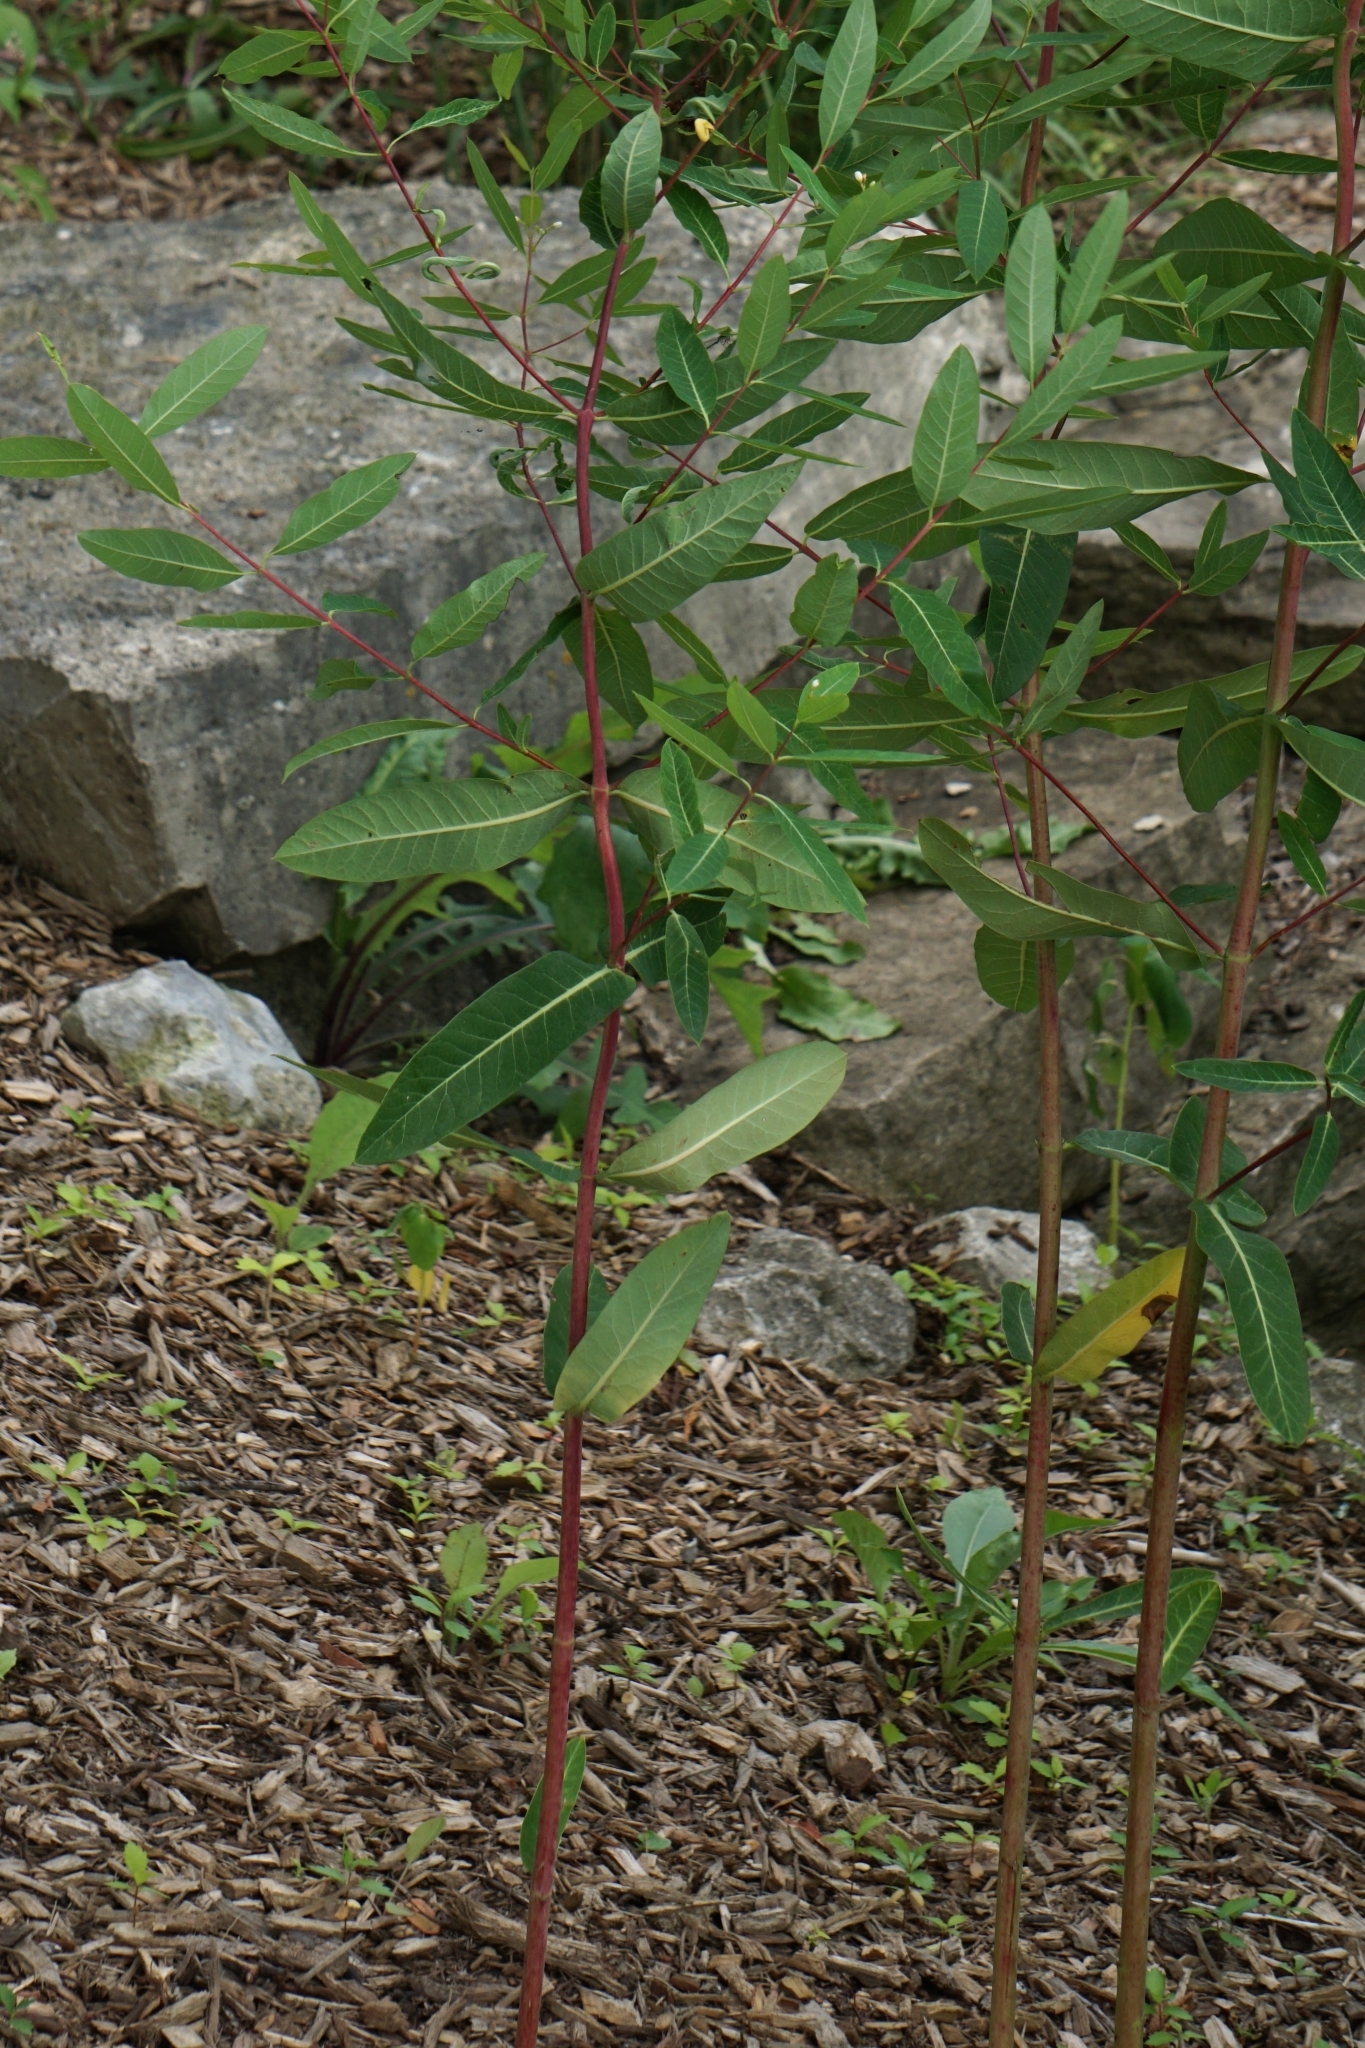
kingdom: Plantae
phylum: Tracheophyta
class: Magnoliopsida
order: Gentianales
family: Apocynaceae
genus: Apocynum
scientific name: Apocynum cannabinum
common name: Hemp dogbane
